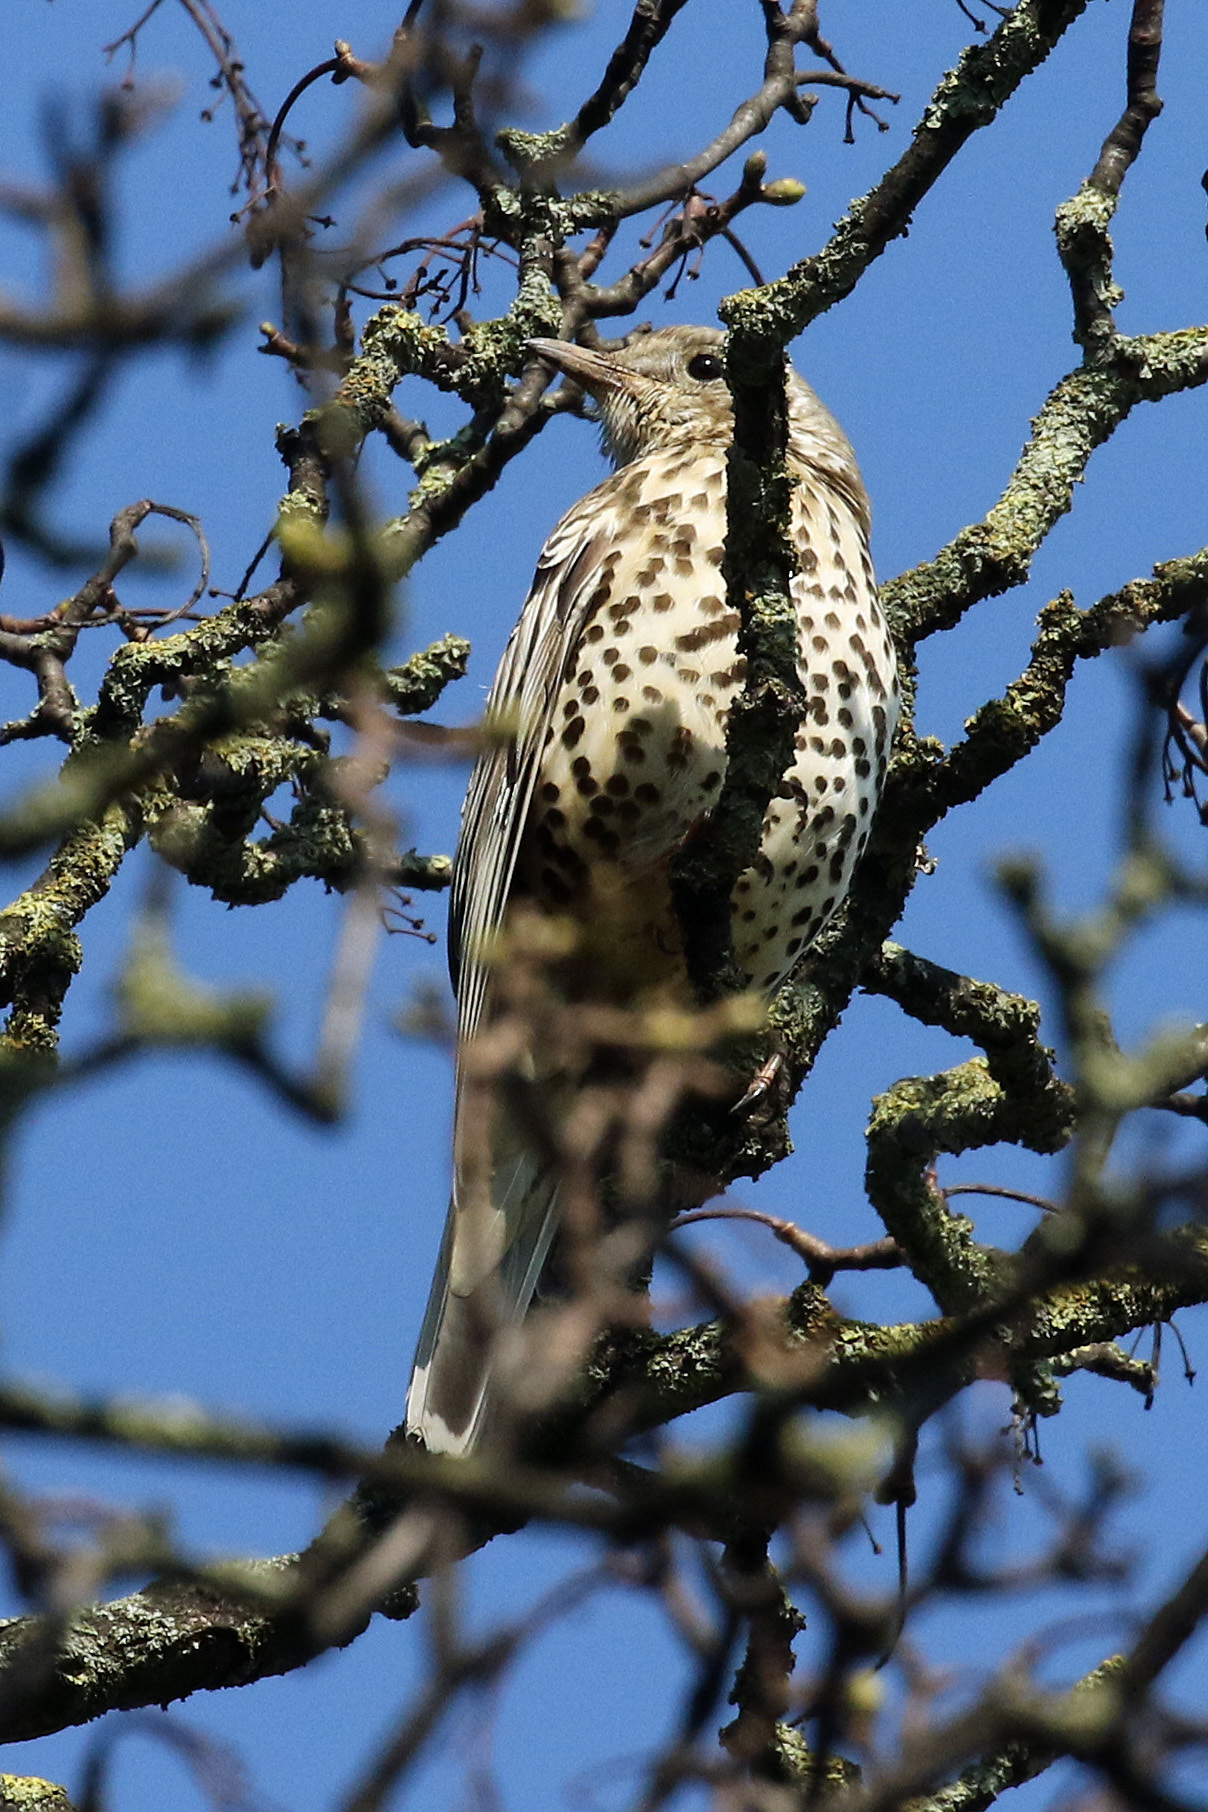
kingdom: Animalia
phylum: Chordata
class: Aves
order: Passeriformes
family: Turdidae
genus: Turdus
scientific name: Turdus viscivorus
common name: Mistle thrush
